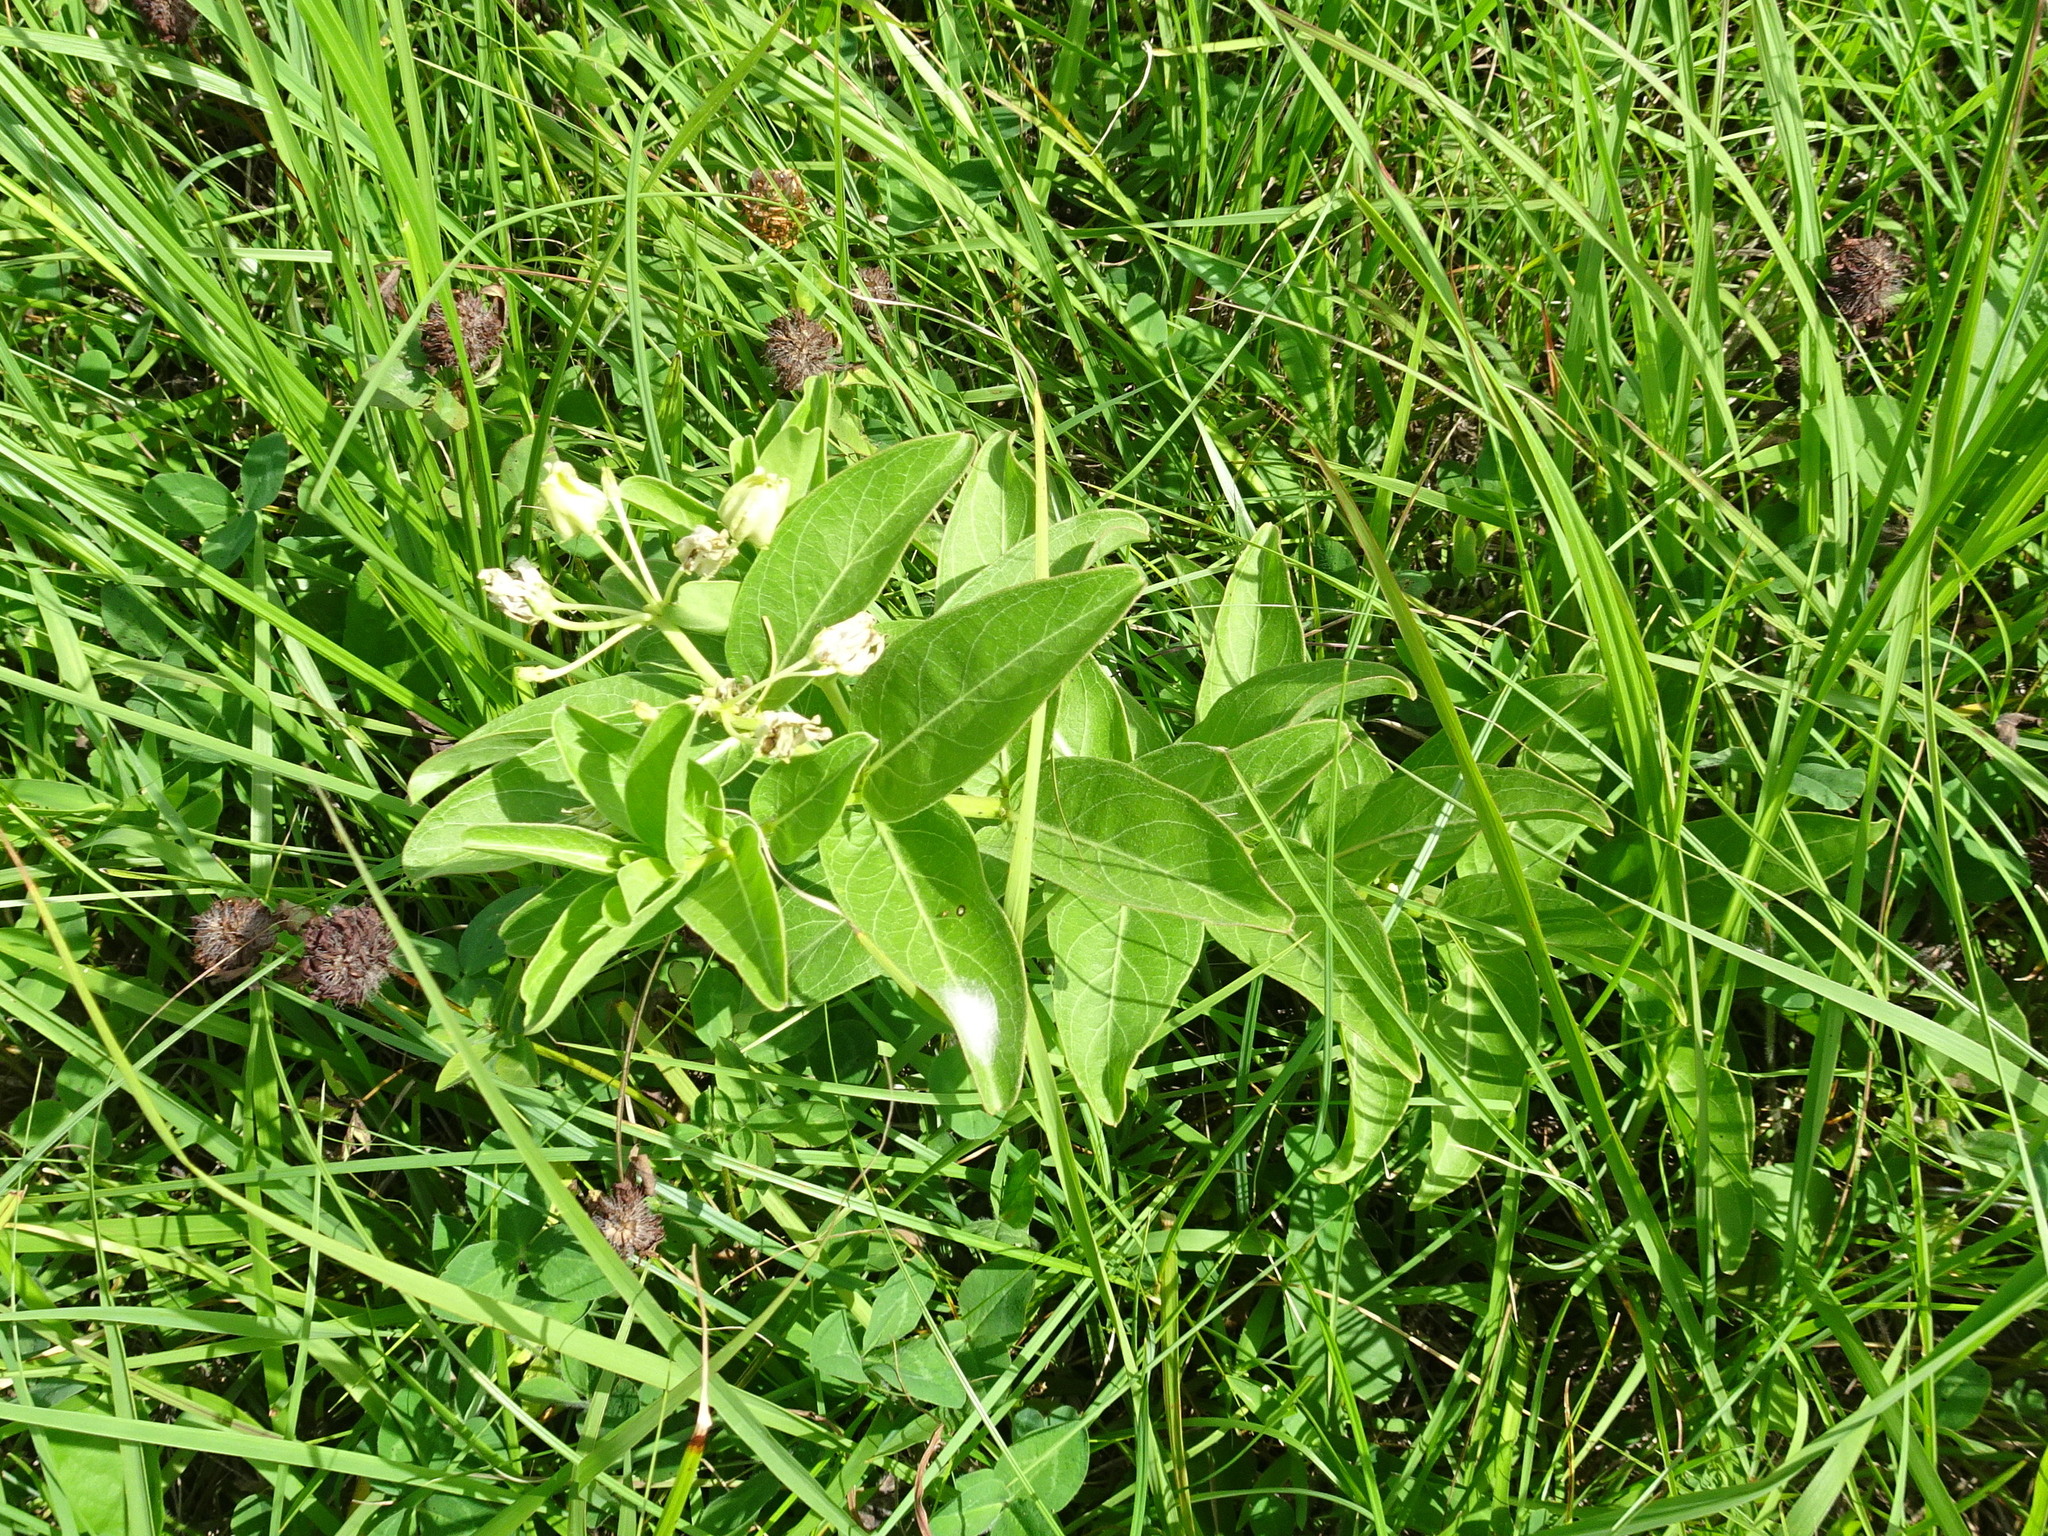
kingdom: Plantae
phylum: Tracheophyta
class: Magnoliopsida
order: Gentianales
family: Apocynaceae
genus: Asclepias
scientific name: Asclepias viridis
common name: Antelope-horns
